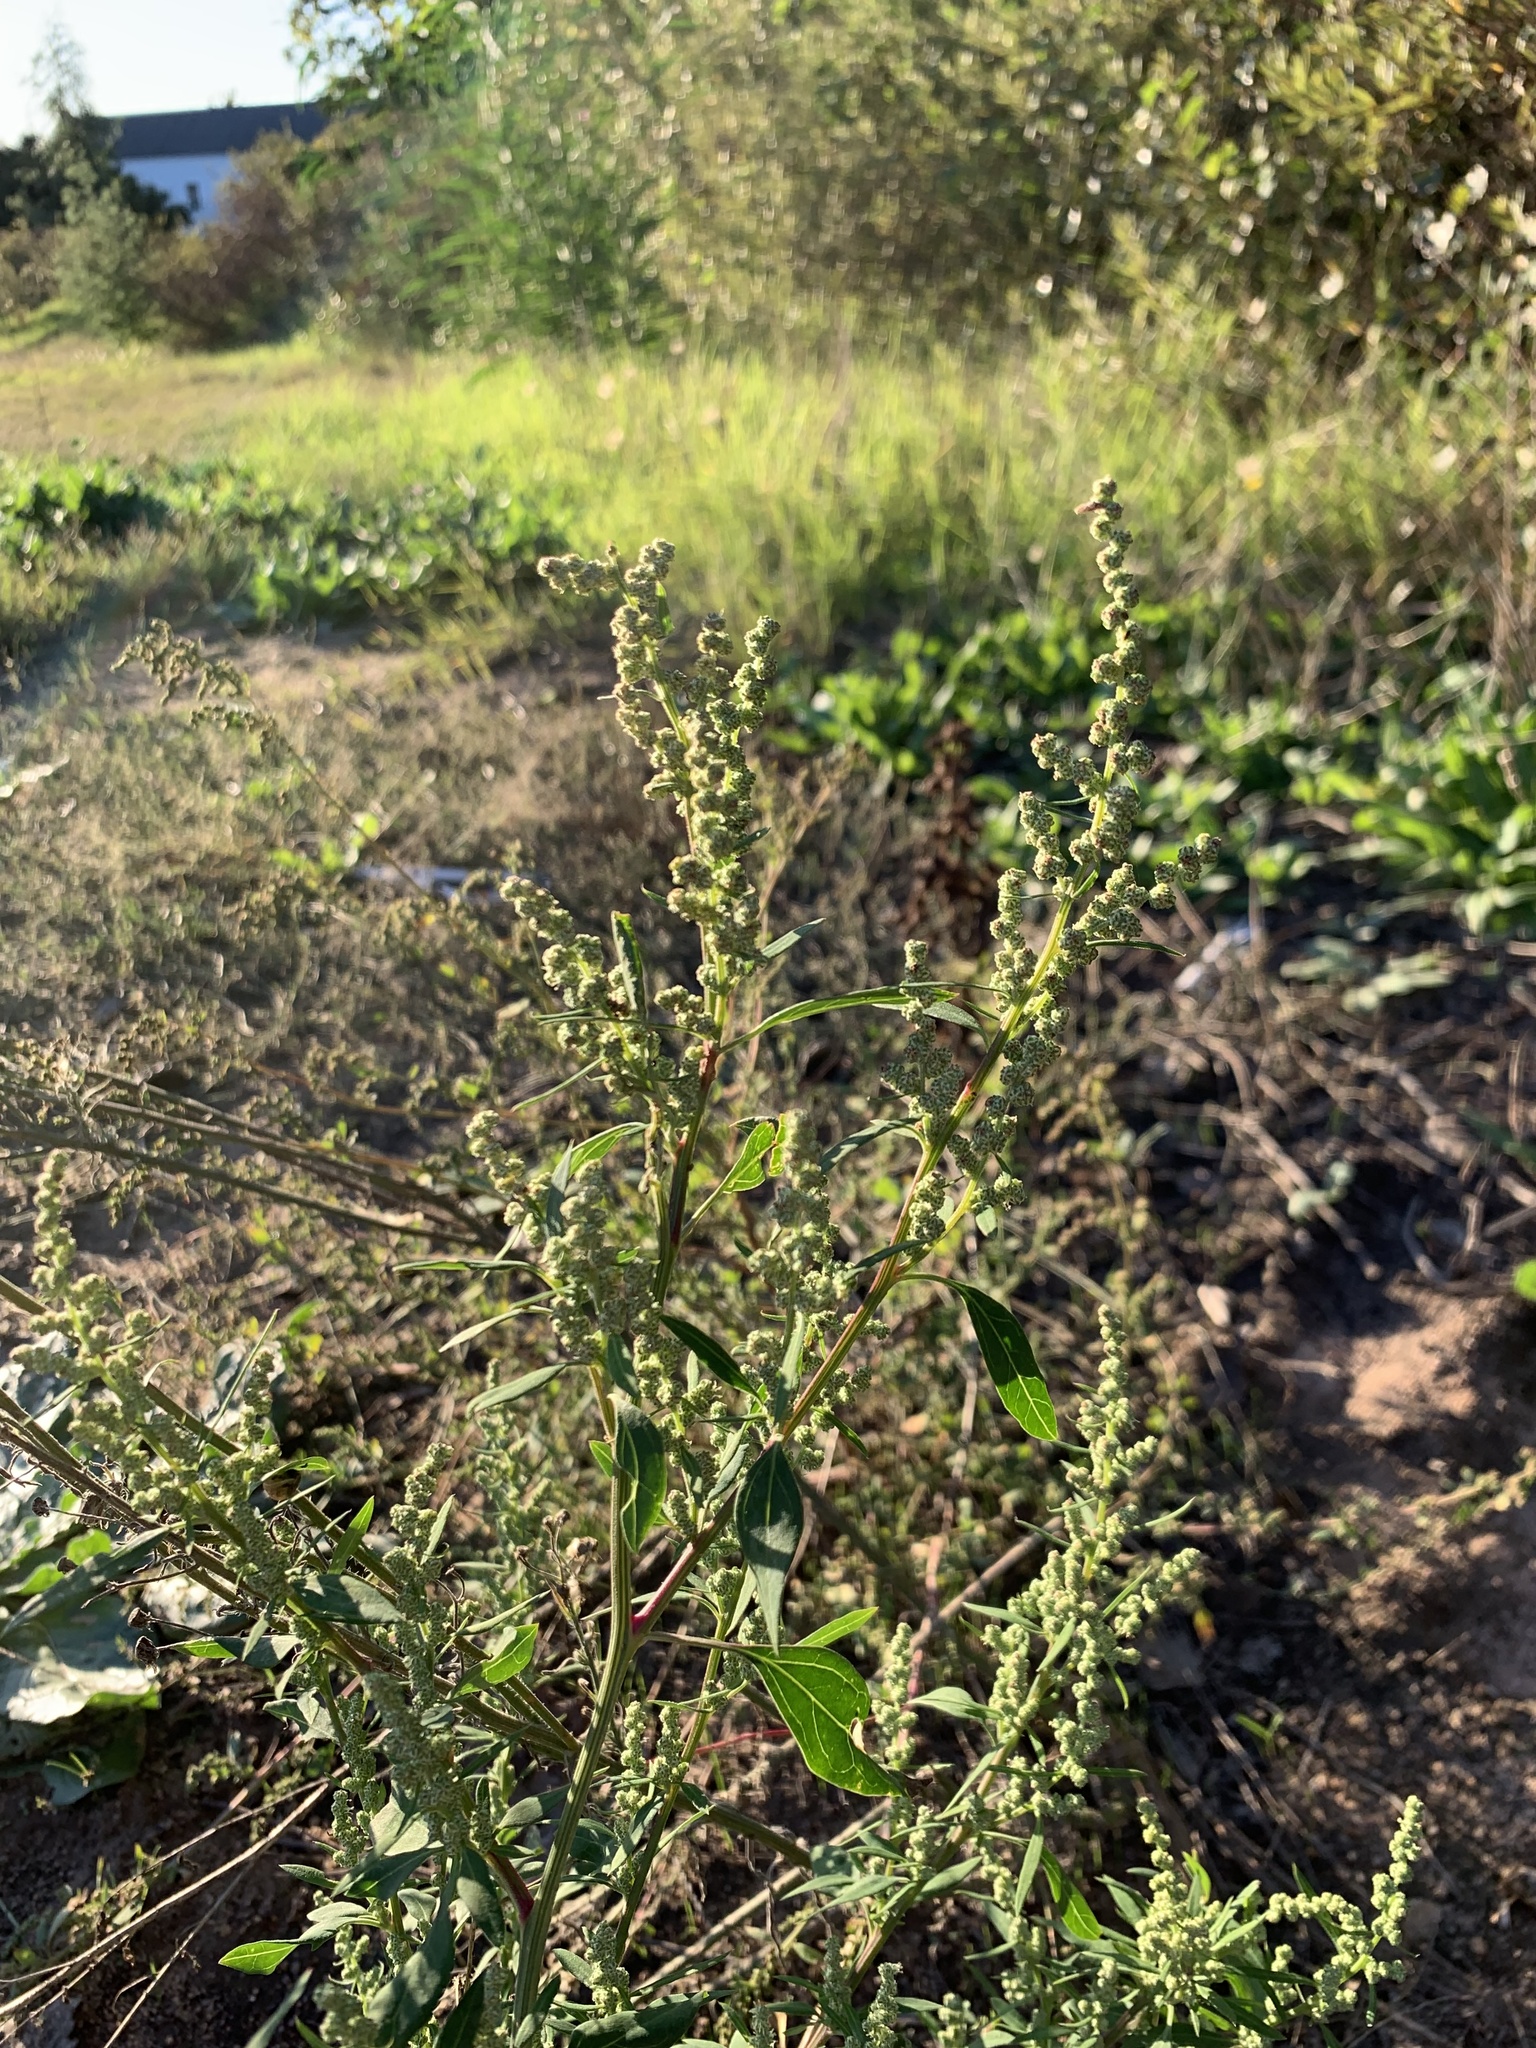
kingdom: Plantae
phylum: Tracheophyta
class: Magnoliopsida
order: Caryophyllales
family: Amaranthaceae
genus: Chenopodium
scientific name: Chenopodium album
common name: Fat-hen
